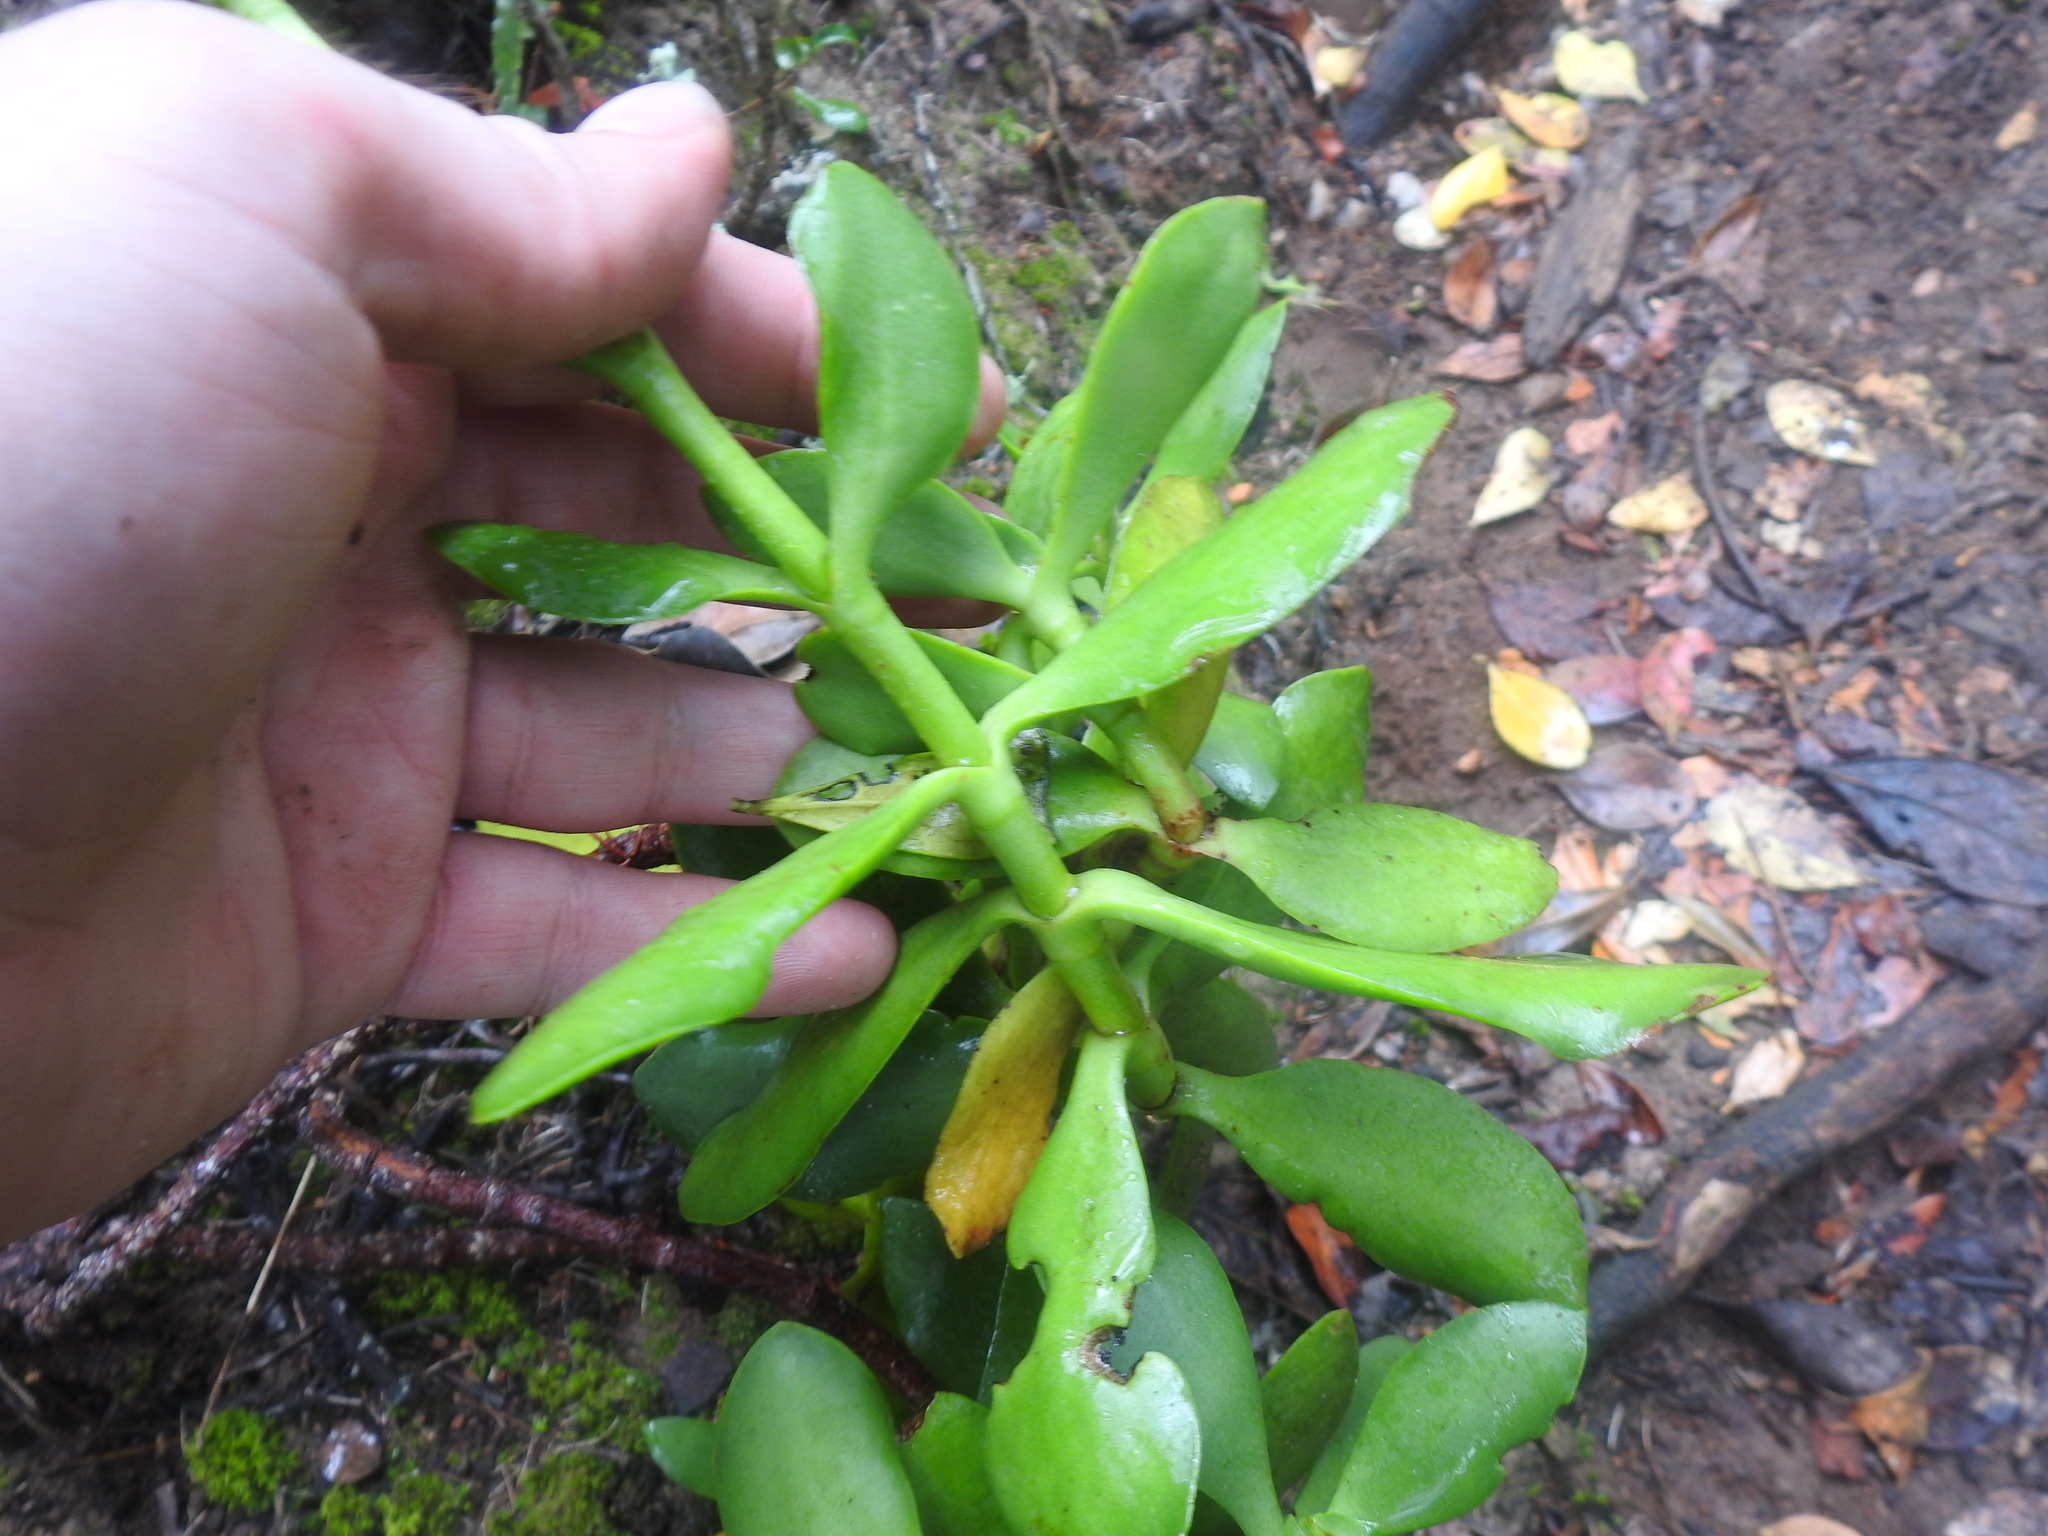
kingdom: Plantae
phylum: Tracheophyta
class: Magnoliopsida
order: Saxifragales
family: Crassulaceae
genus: Crassula
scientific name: Crassula cultrata
